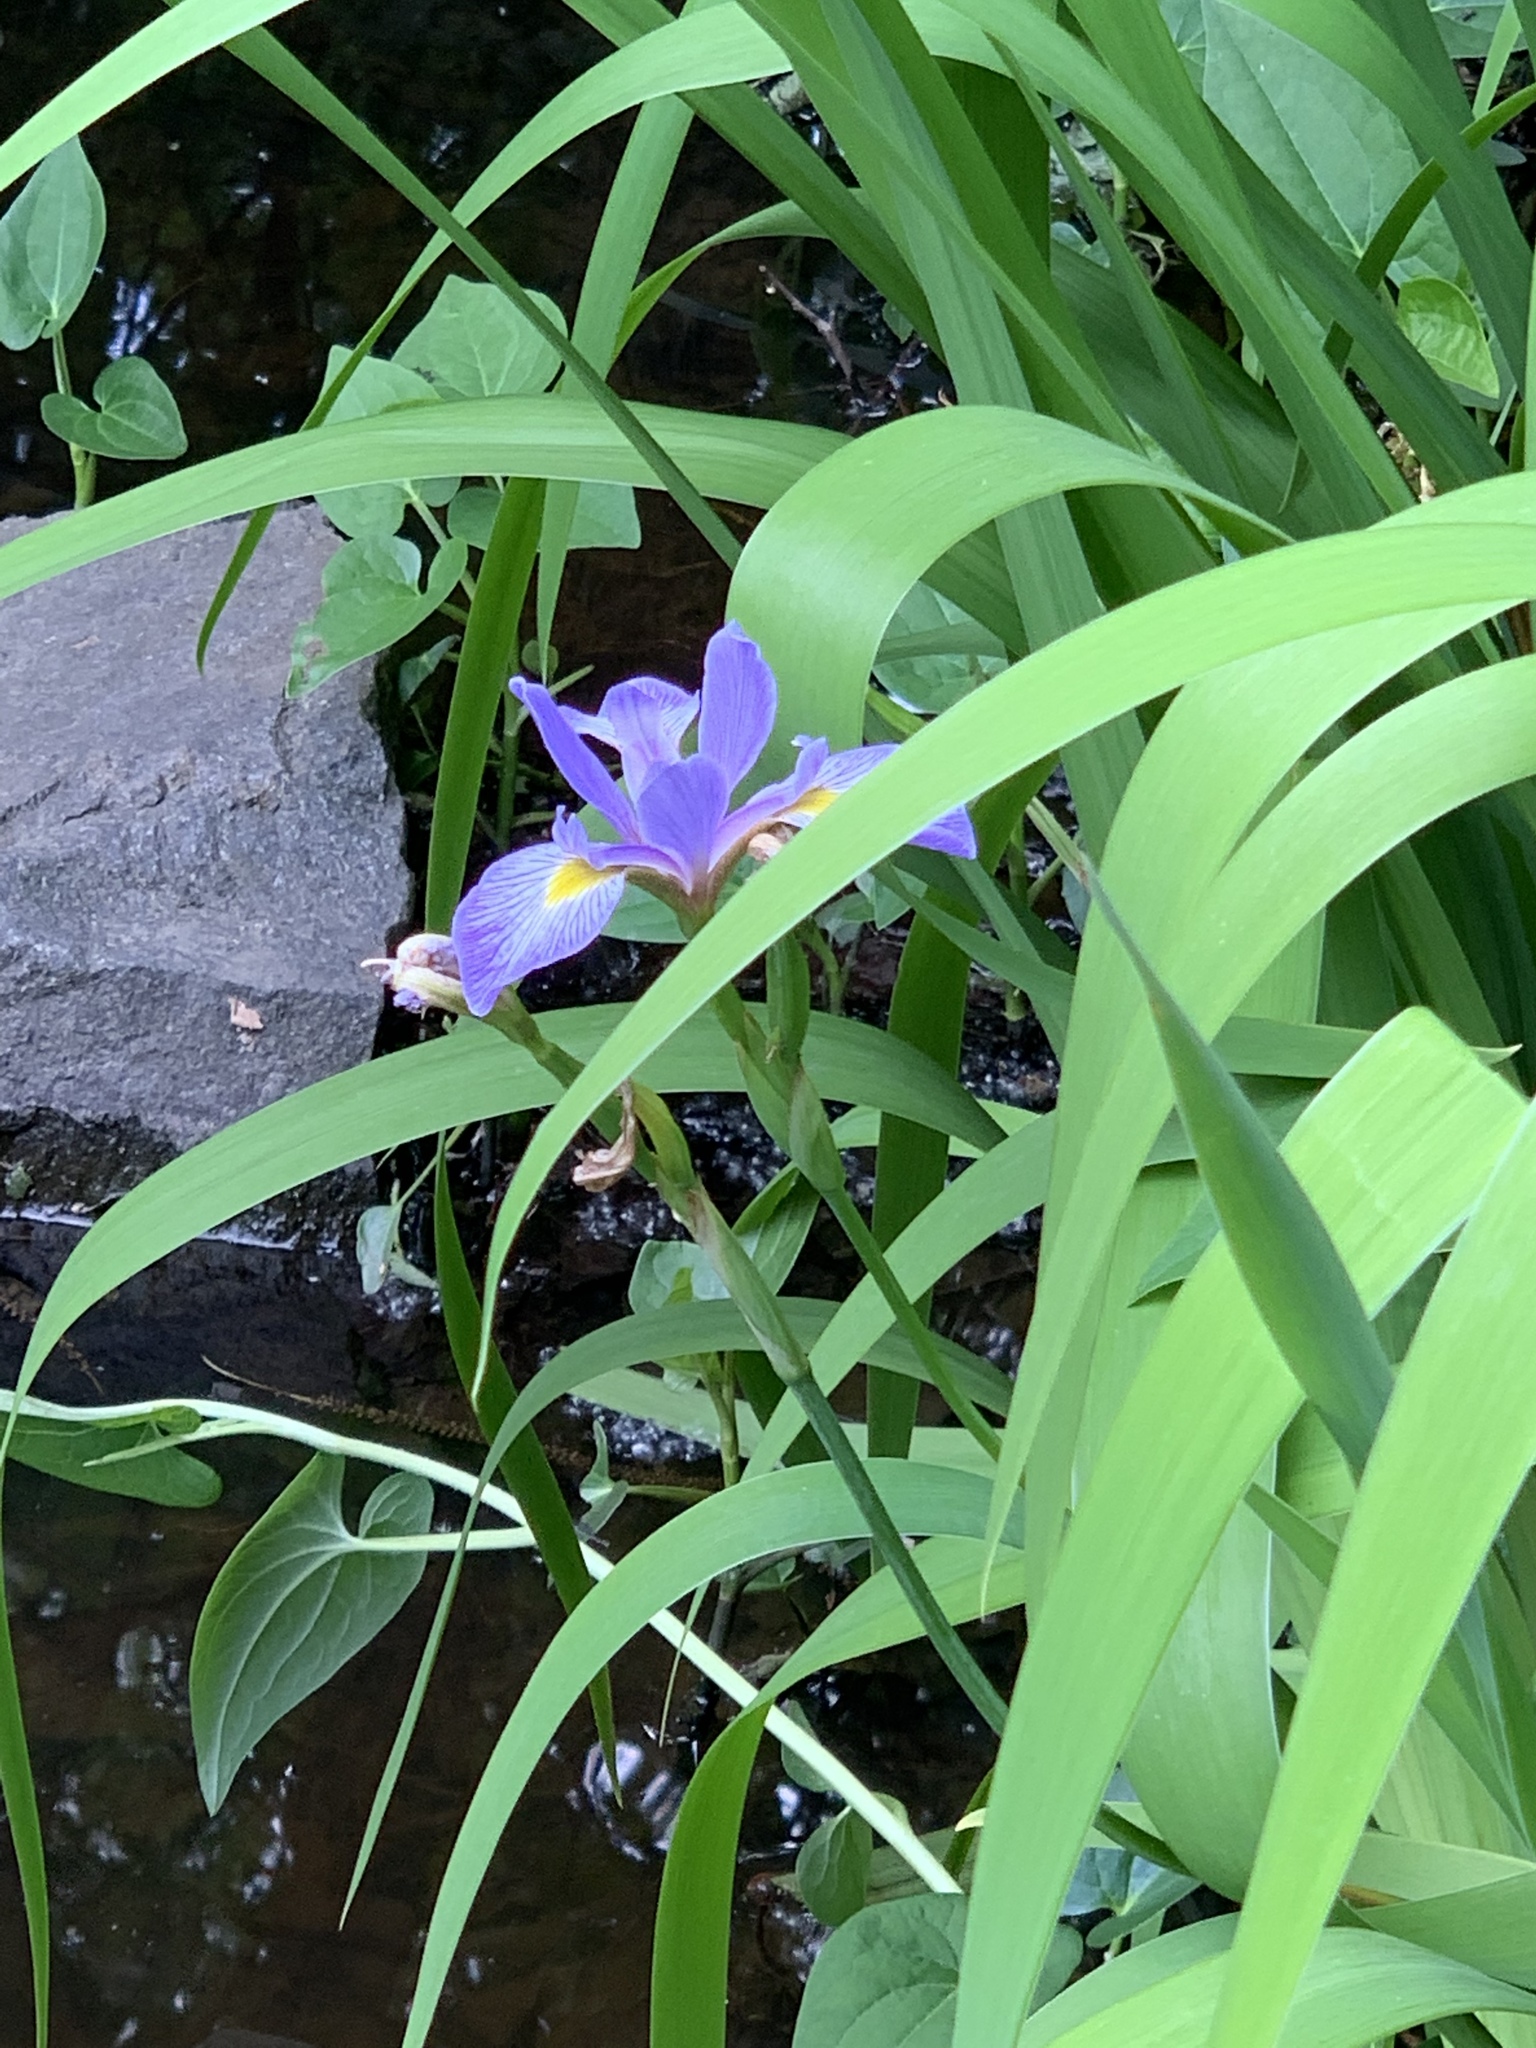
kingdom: Plantae
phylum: Tracheophyta
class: Liliopsida
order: Asparagales
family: Iridaceae
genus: Iris
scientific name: Iris versicolor
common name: Purple iris
